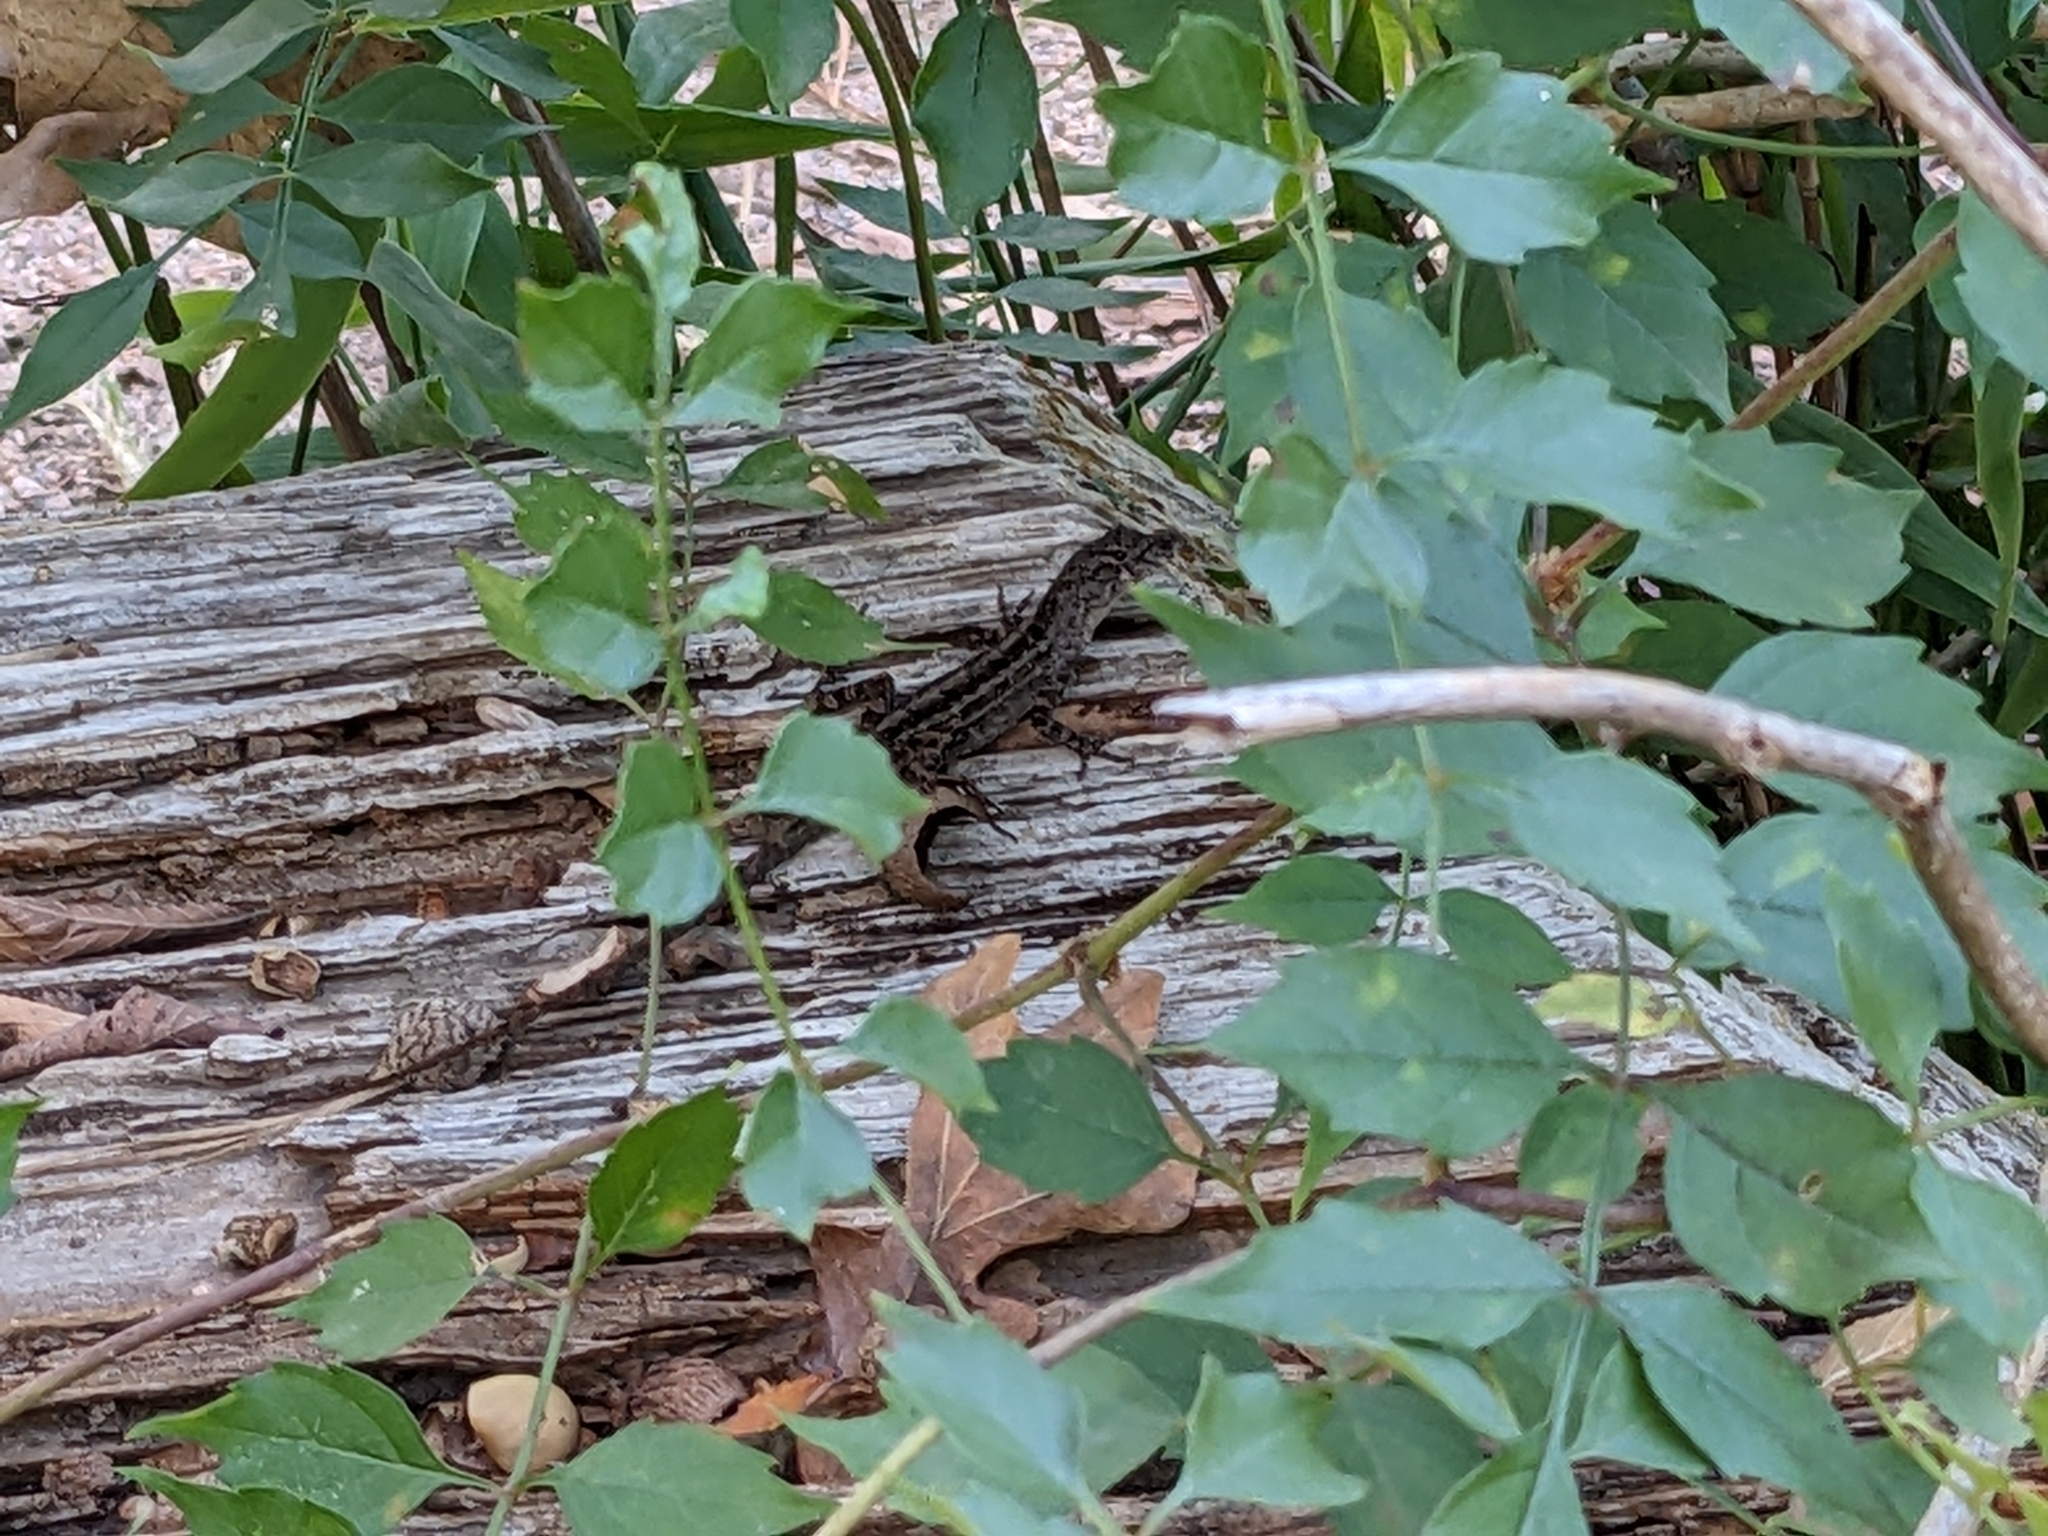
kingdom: Animalia
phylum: Chordata
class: Squamata
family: Dactyloidae
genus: Anolis
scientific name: Anolis sagrei
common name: Brown anole
